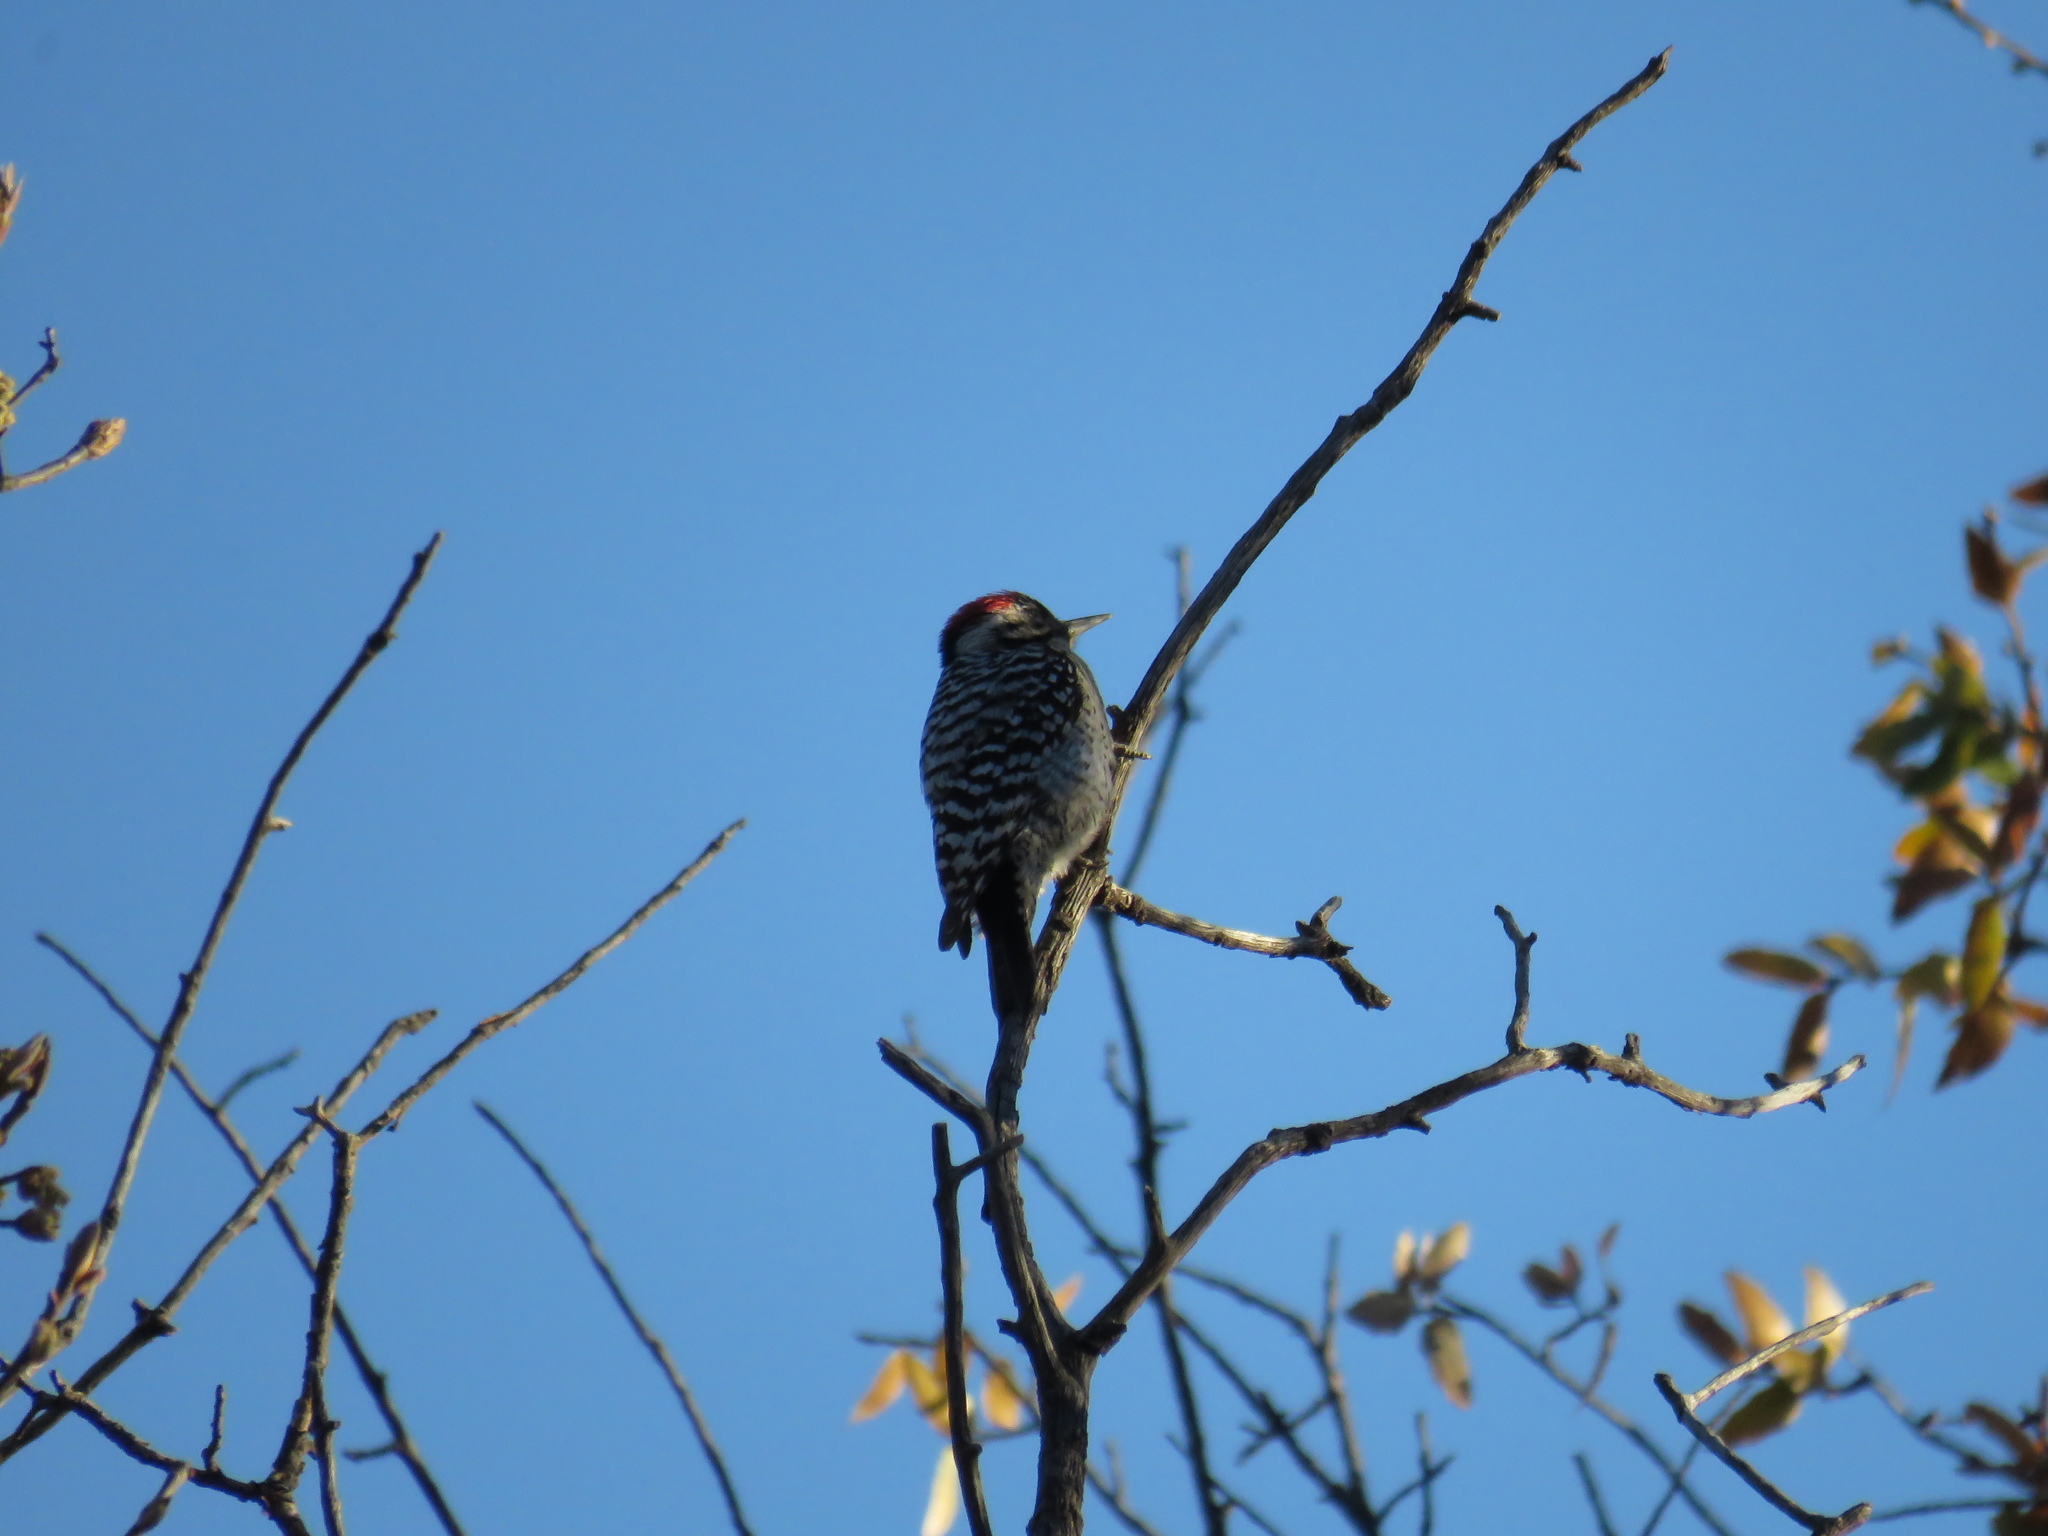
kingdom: Animalia
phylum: Chordata
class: Aves
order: Piciformes
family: Picidae
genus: Dryobates
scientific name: Dryobates scalaris
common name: Ladder-backed woodpecker
